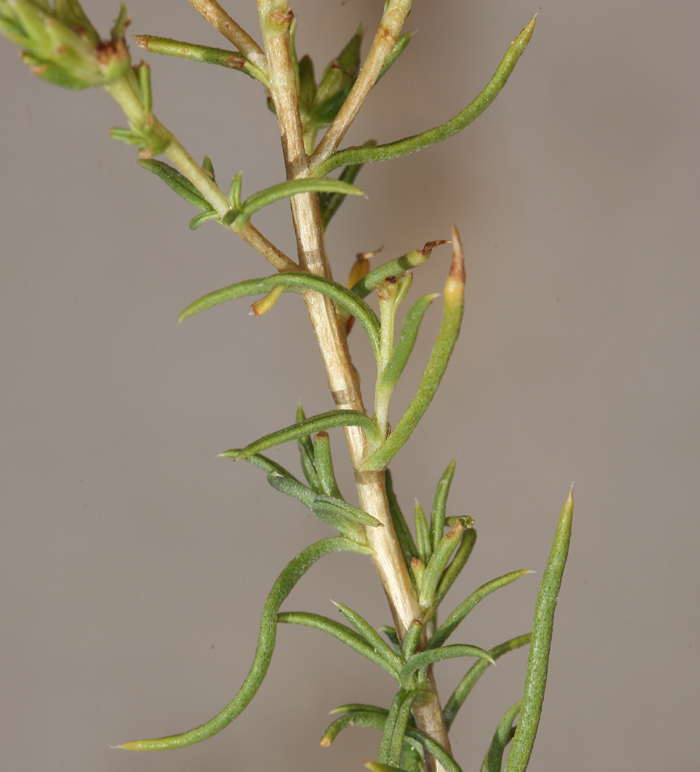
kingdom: Plantae
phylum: Tracheophyta
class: Magnoliopsida
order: Asterales
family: Asteraceae
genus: Ericameria
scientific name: Ericameria albida
